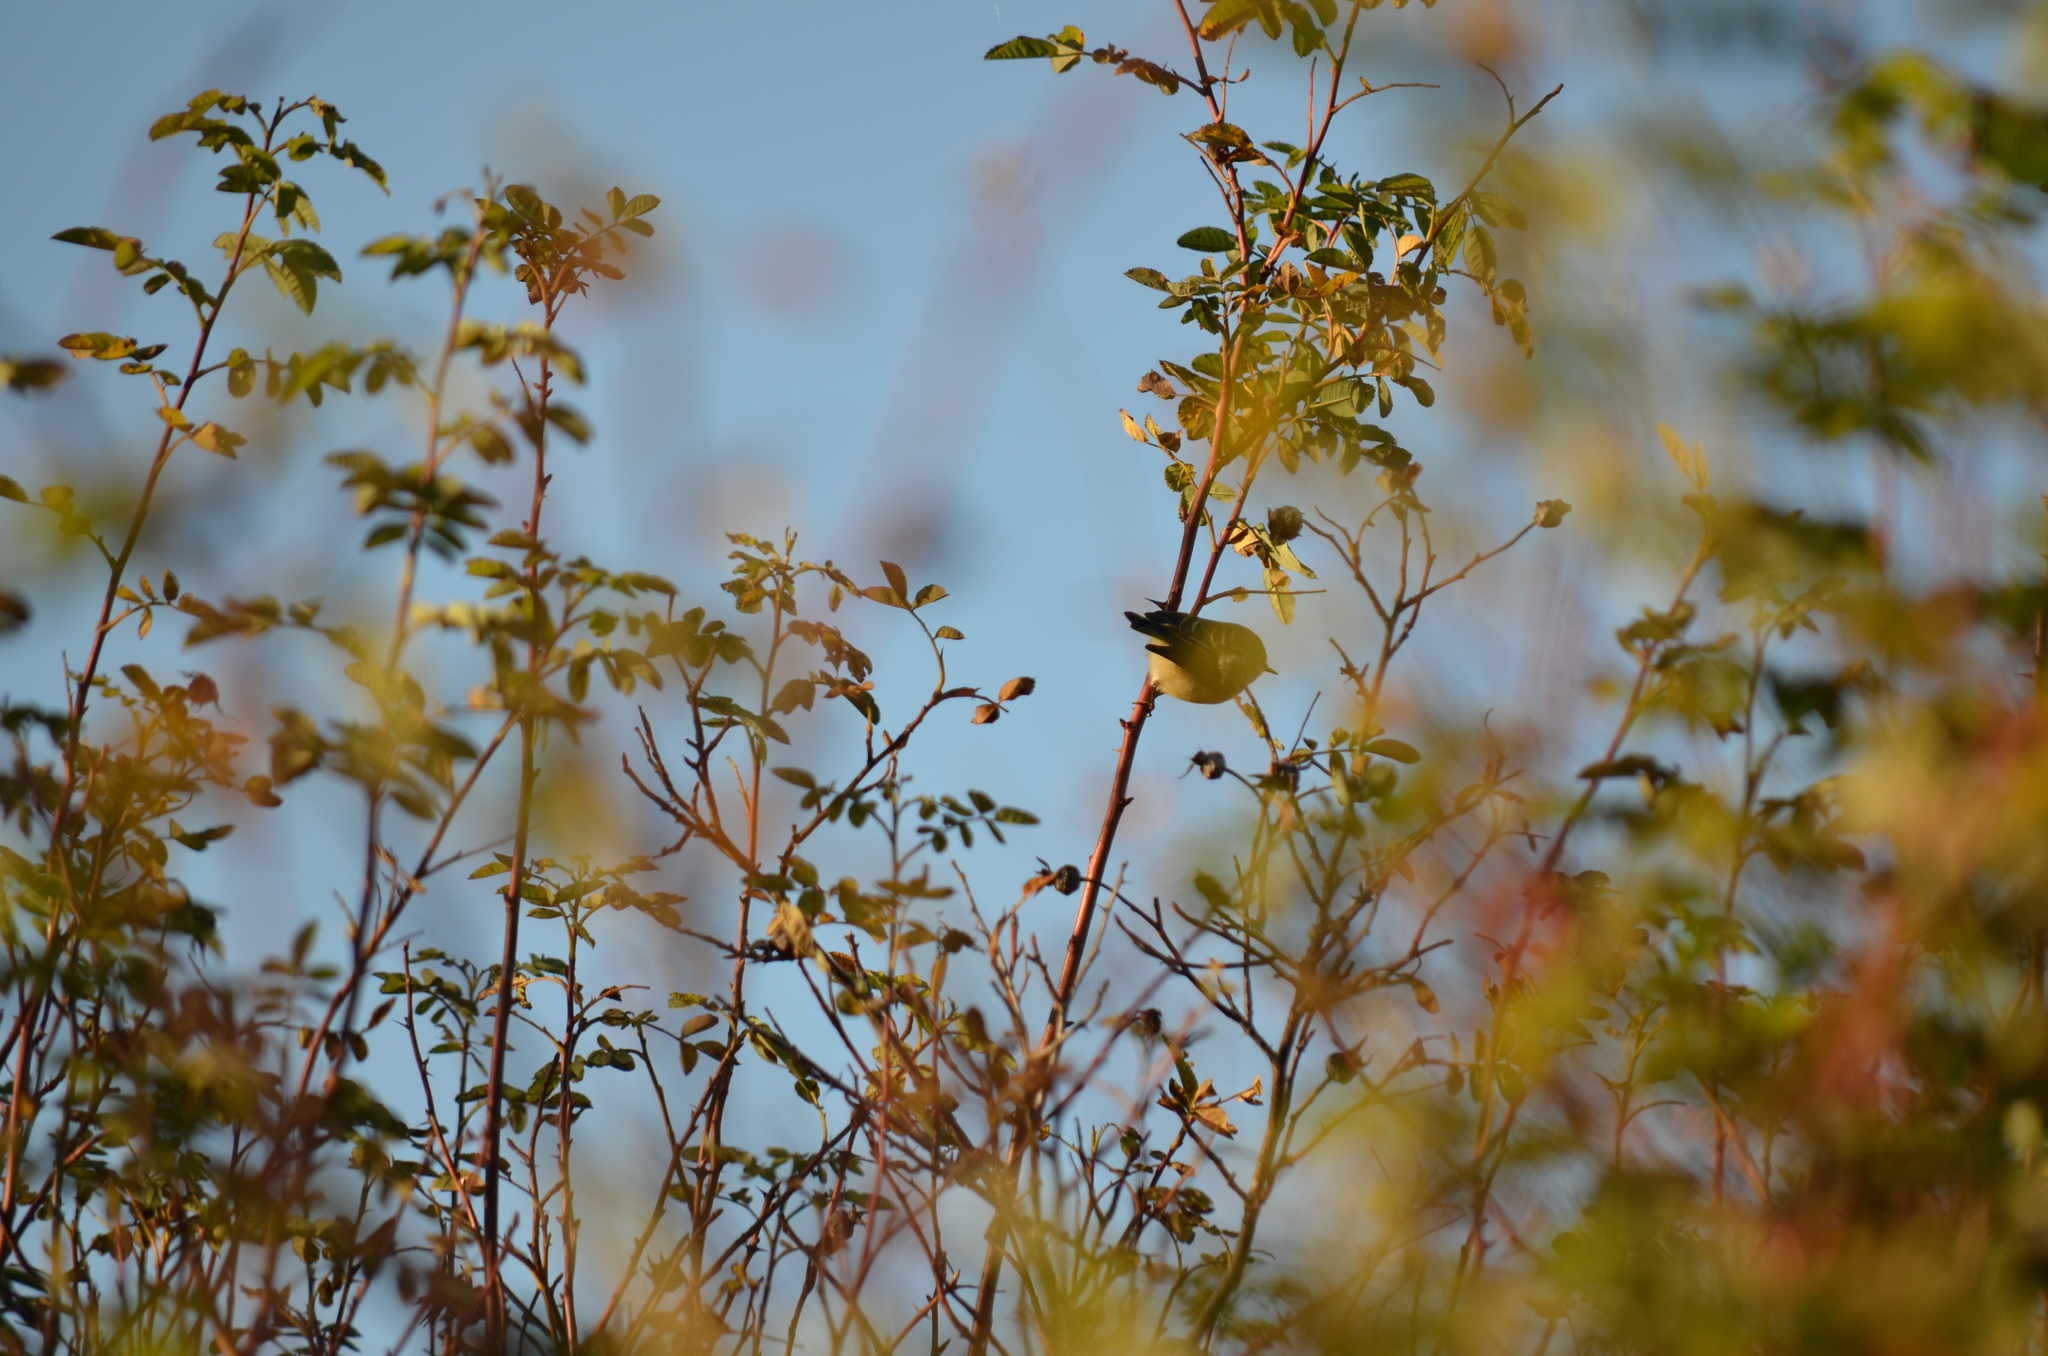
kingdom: Animalia
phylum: Chordata
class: Aves
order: Passeriformes
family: Regulidae
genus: Regulus
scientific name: Regulus calendula
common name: Ruby-crowned kinglet
